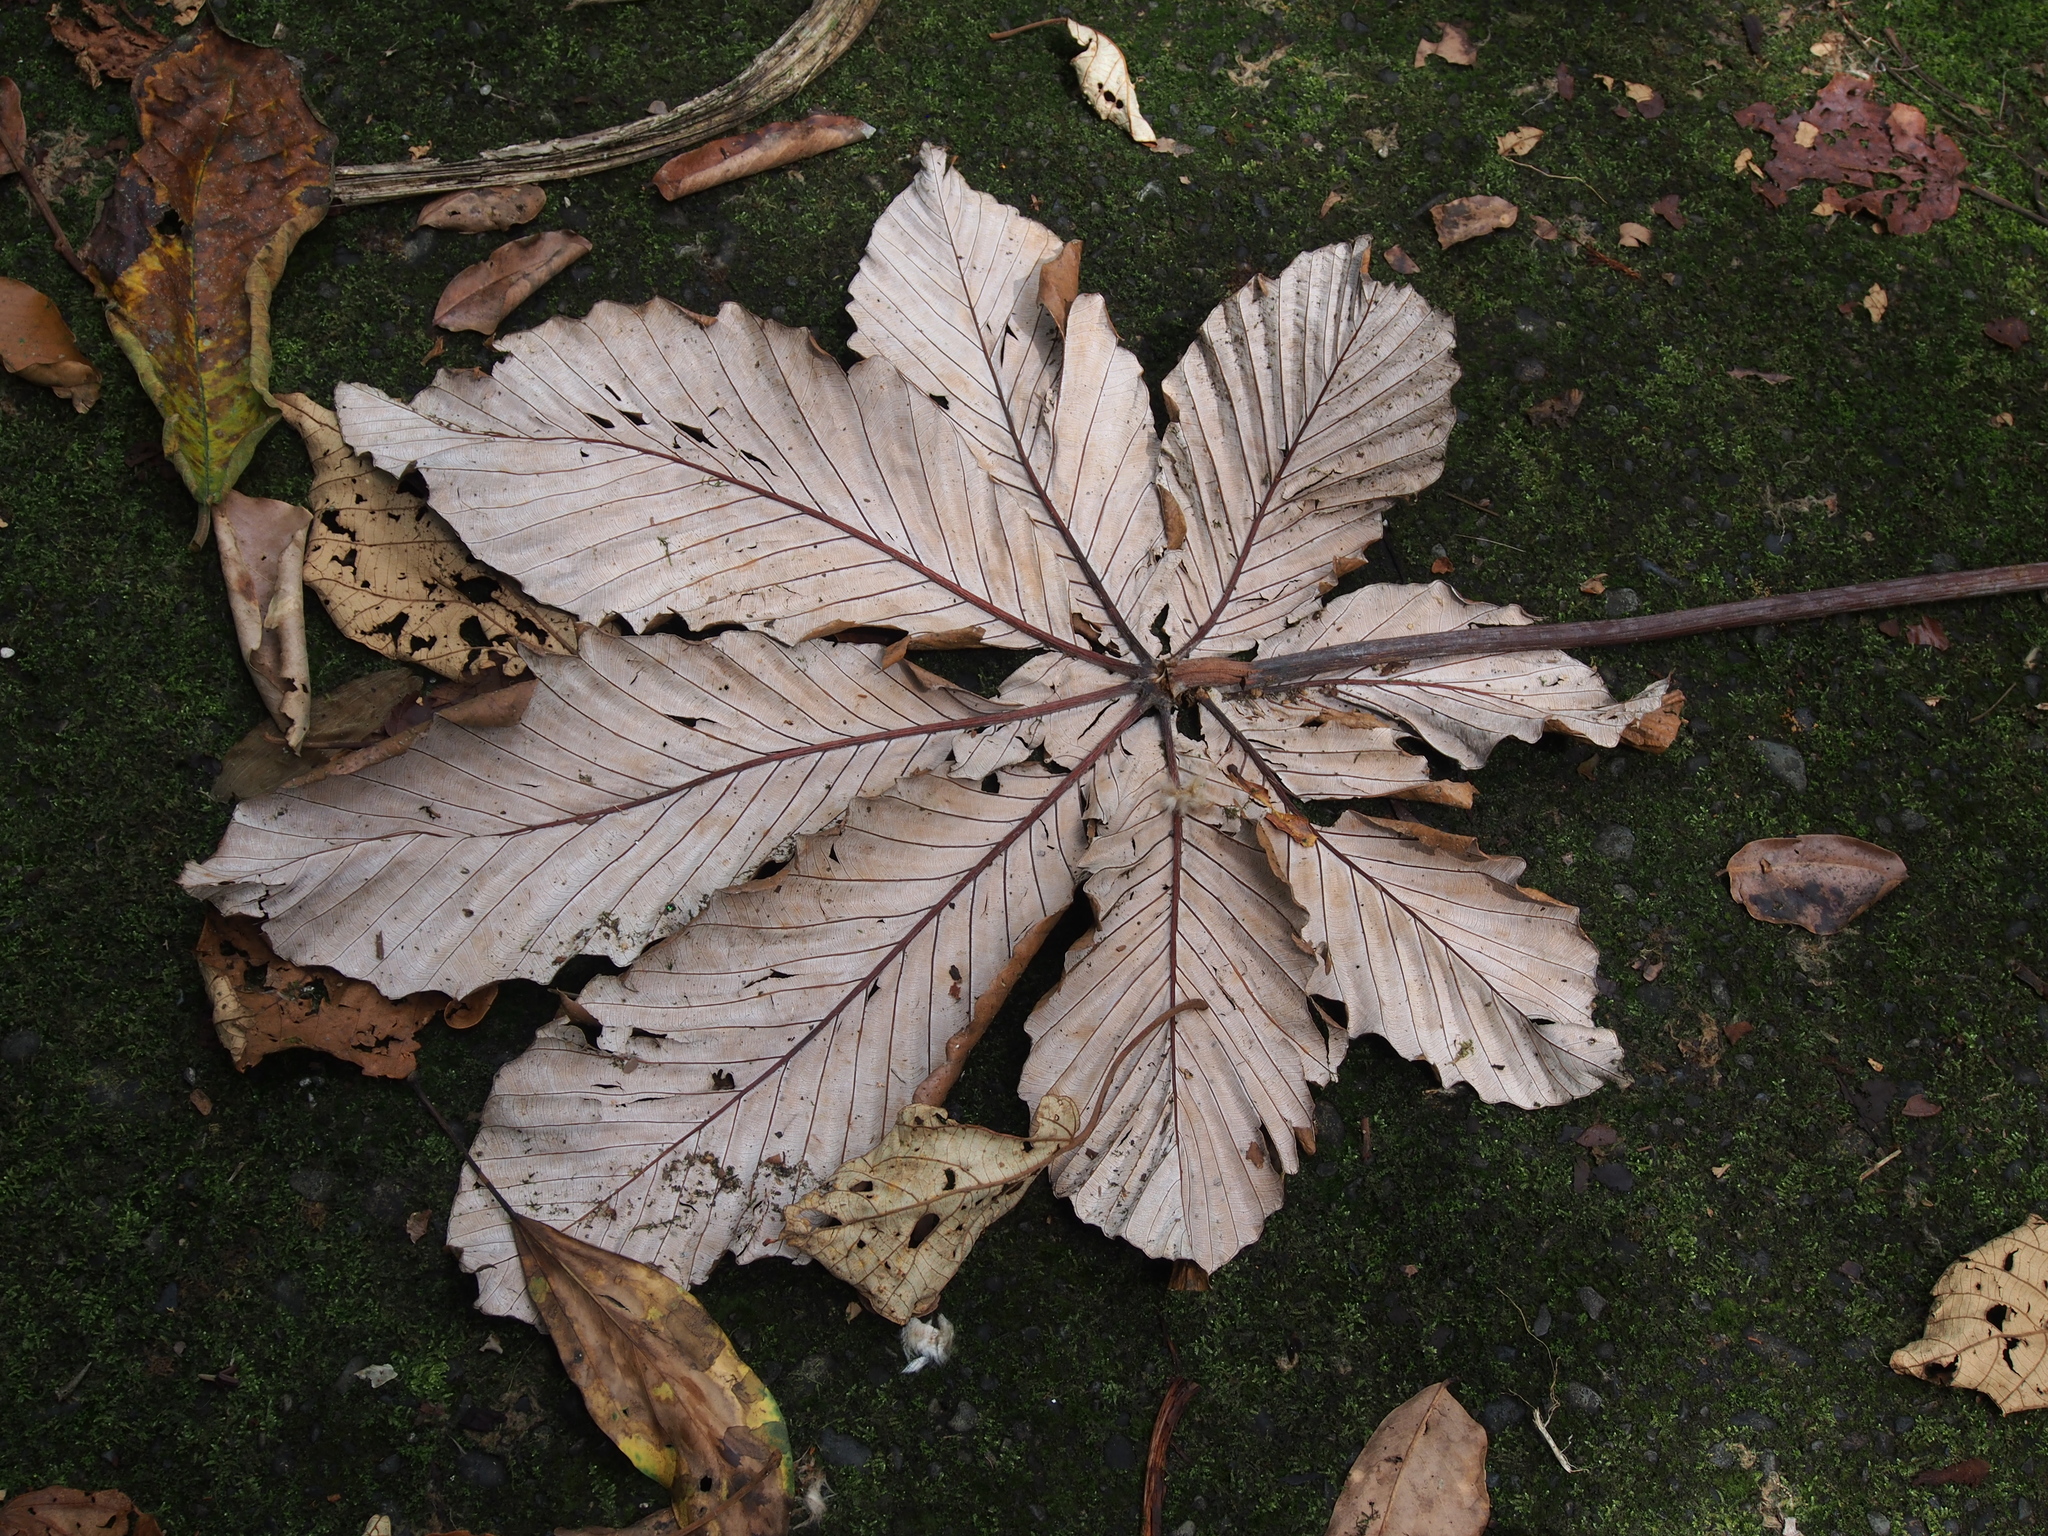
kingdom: Plantae
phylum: Tracheophyta
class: Magnoliopsida
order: Rosales
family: Urticaceae
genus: Cecropia
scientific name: Cecropia insignis
